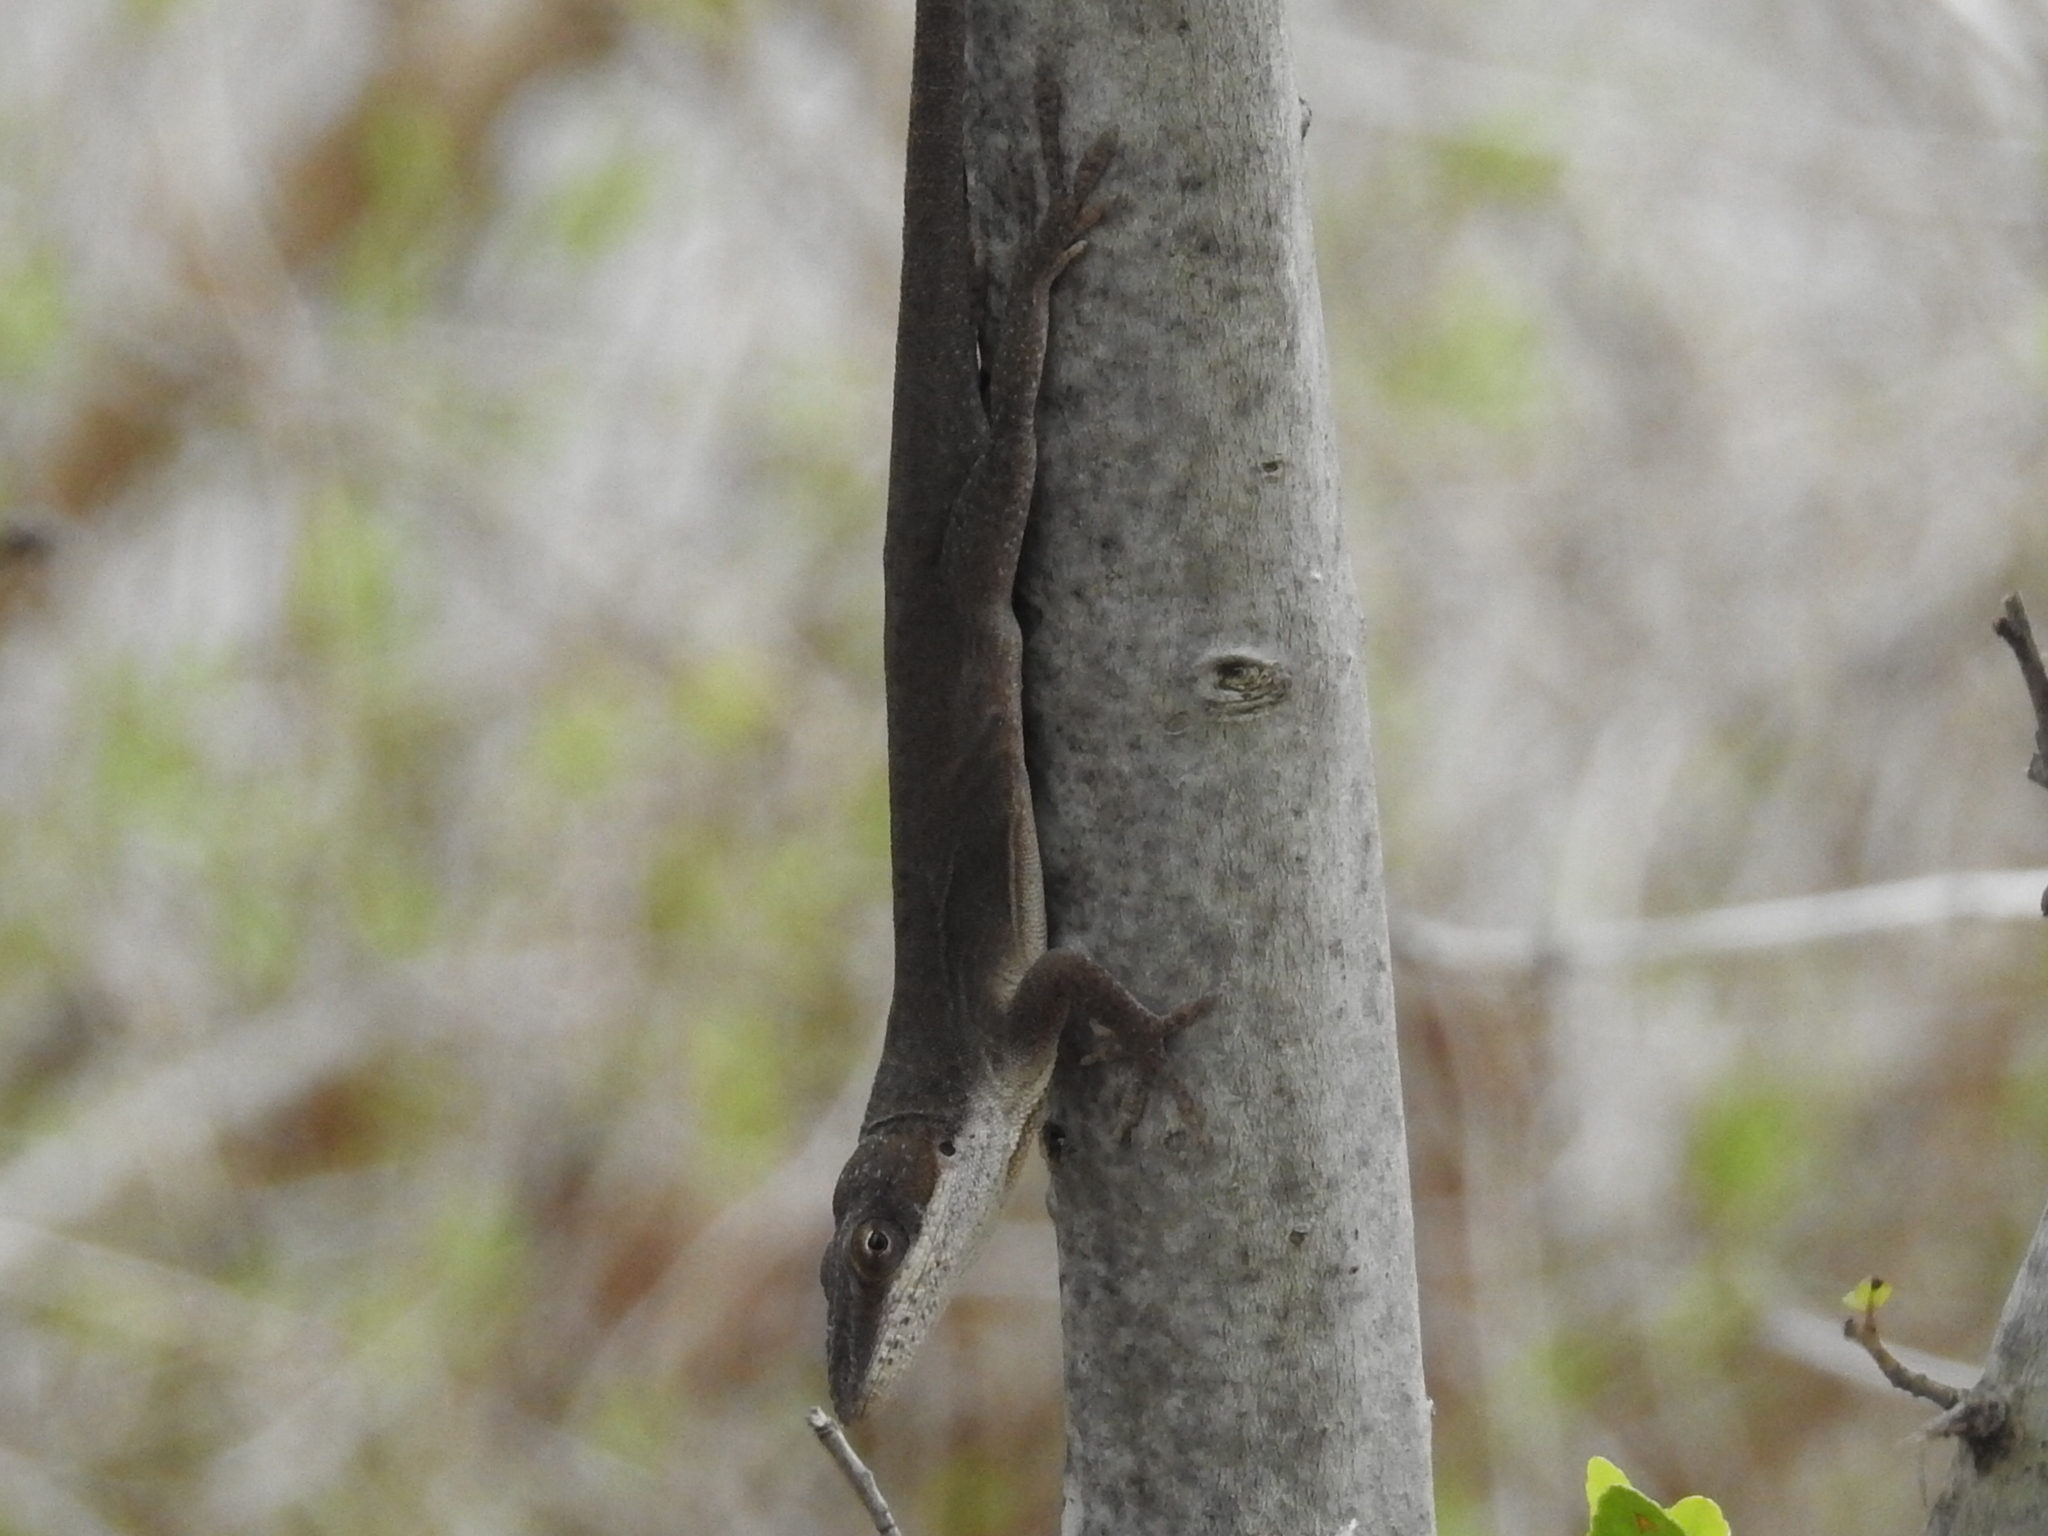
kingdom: Animalia
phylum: Chordata
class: Squamata
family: Dactyloidae
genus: Anolis
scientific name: Anolis carolinensis
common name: Green anole
